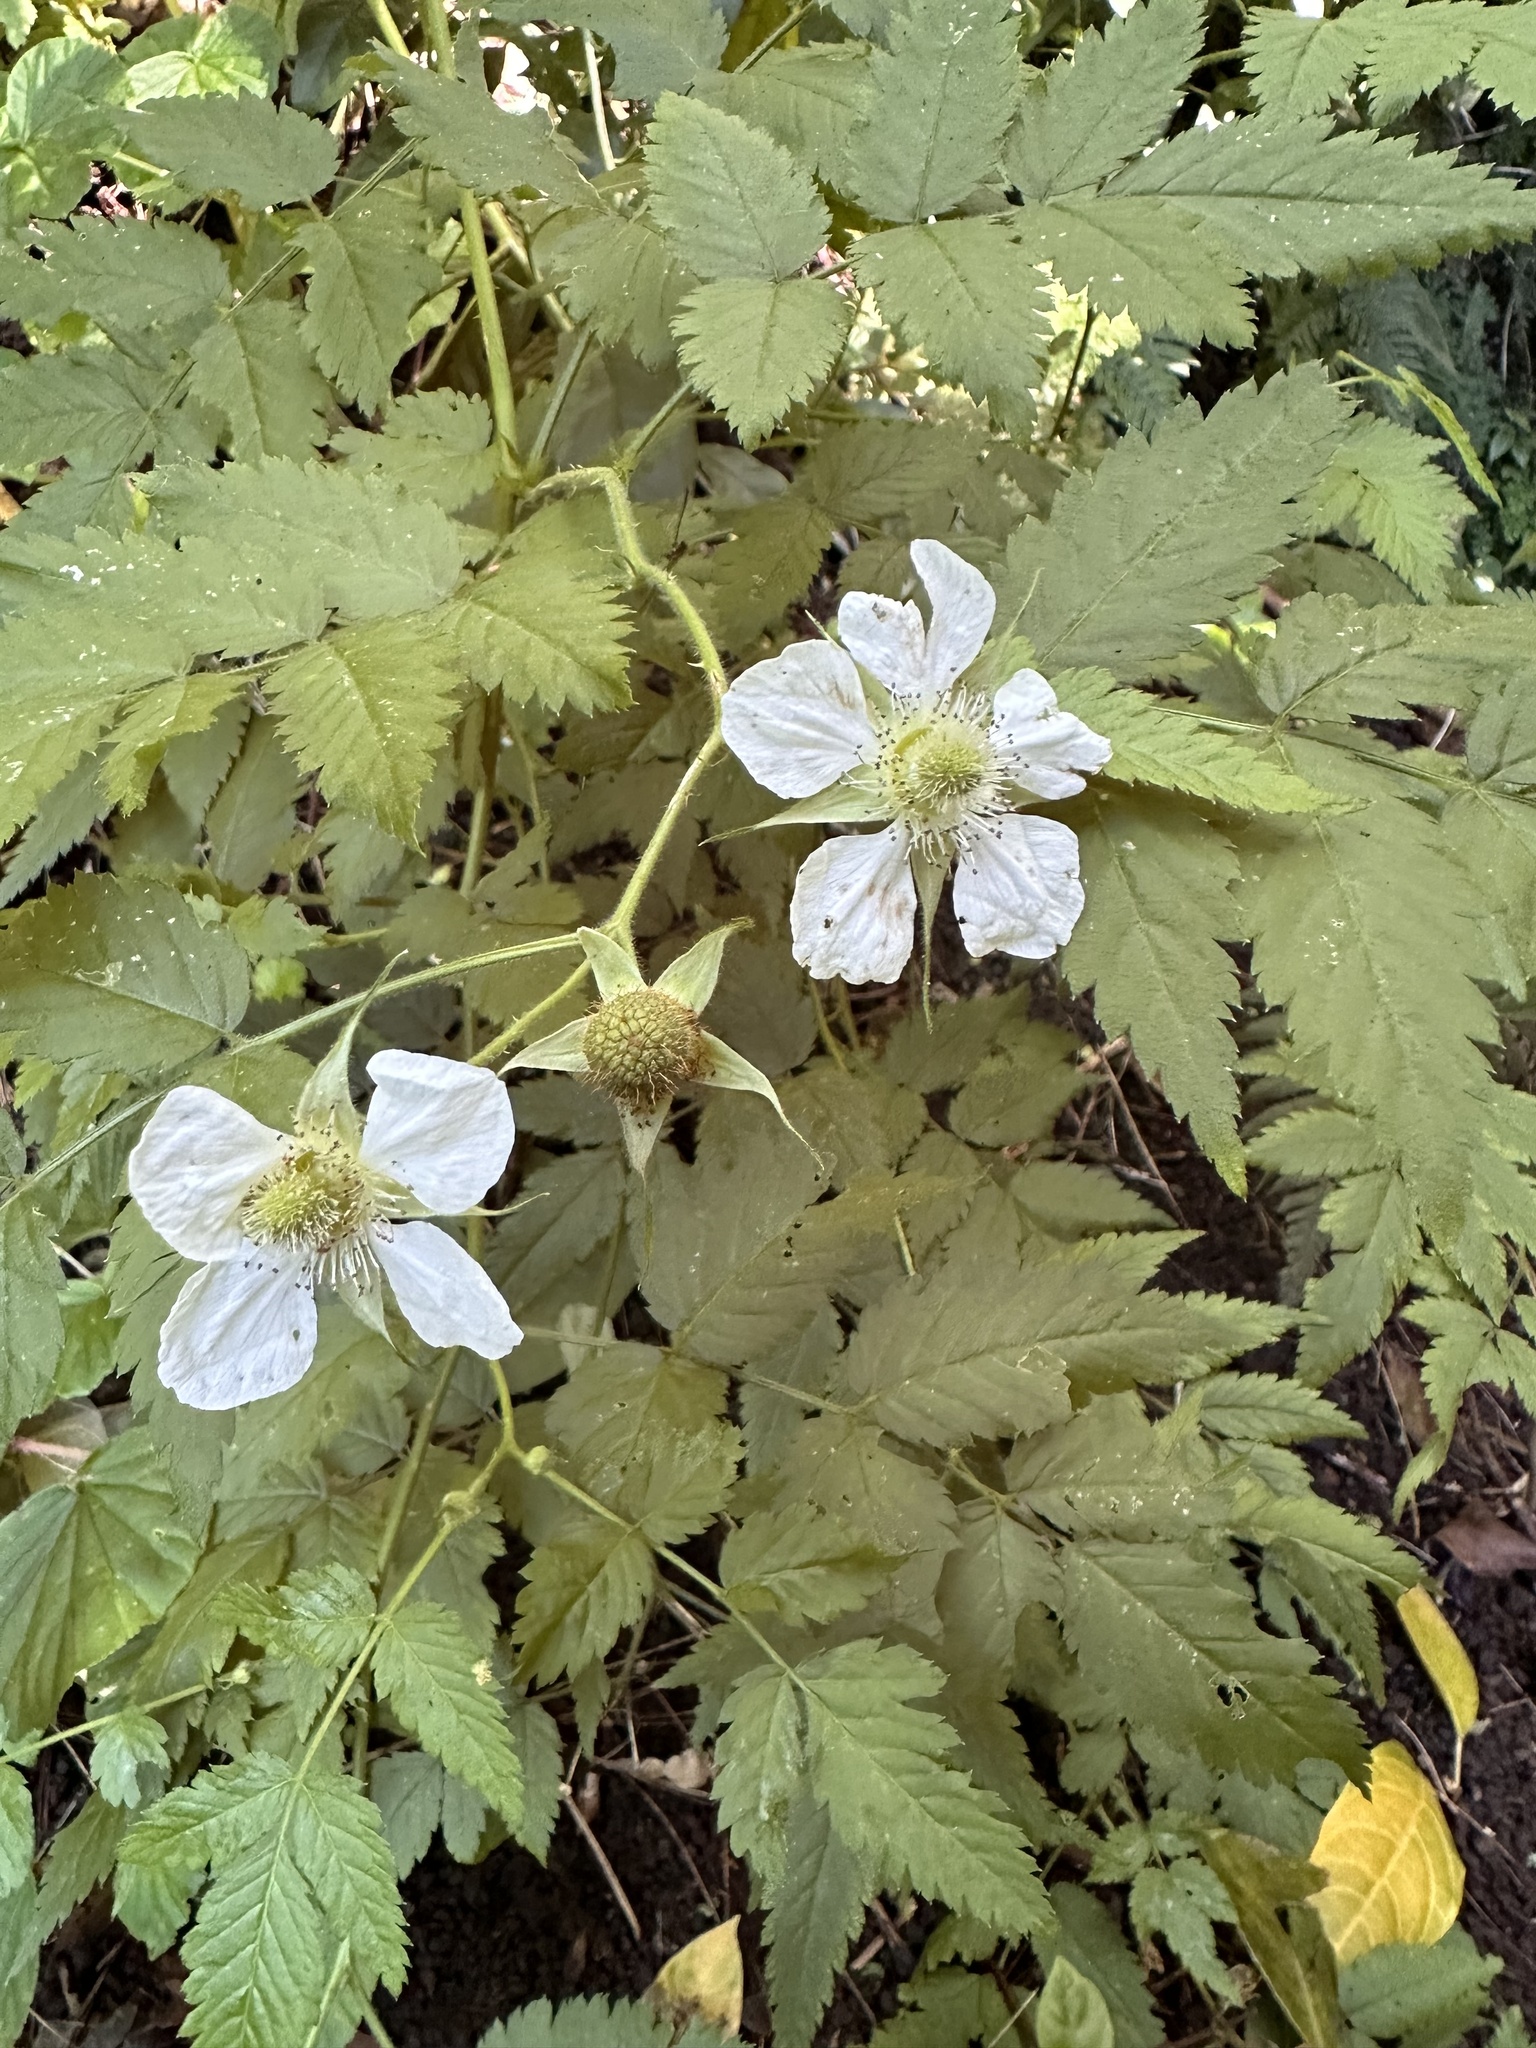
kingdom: Plantae
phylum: Tracheophyta
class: Magnoliopsida
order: Rosales
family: Rosaceae
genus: Rubus
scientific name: Rubus rosifolius
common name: Roseleaf raspberry
